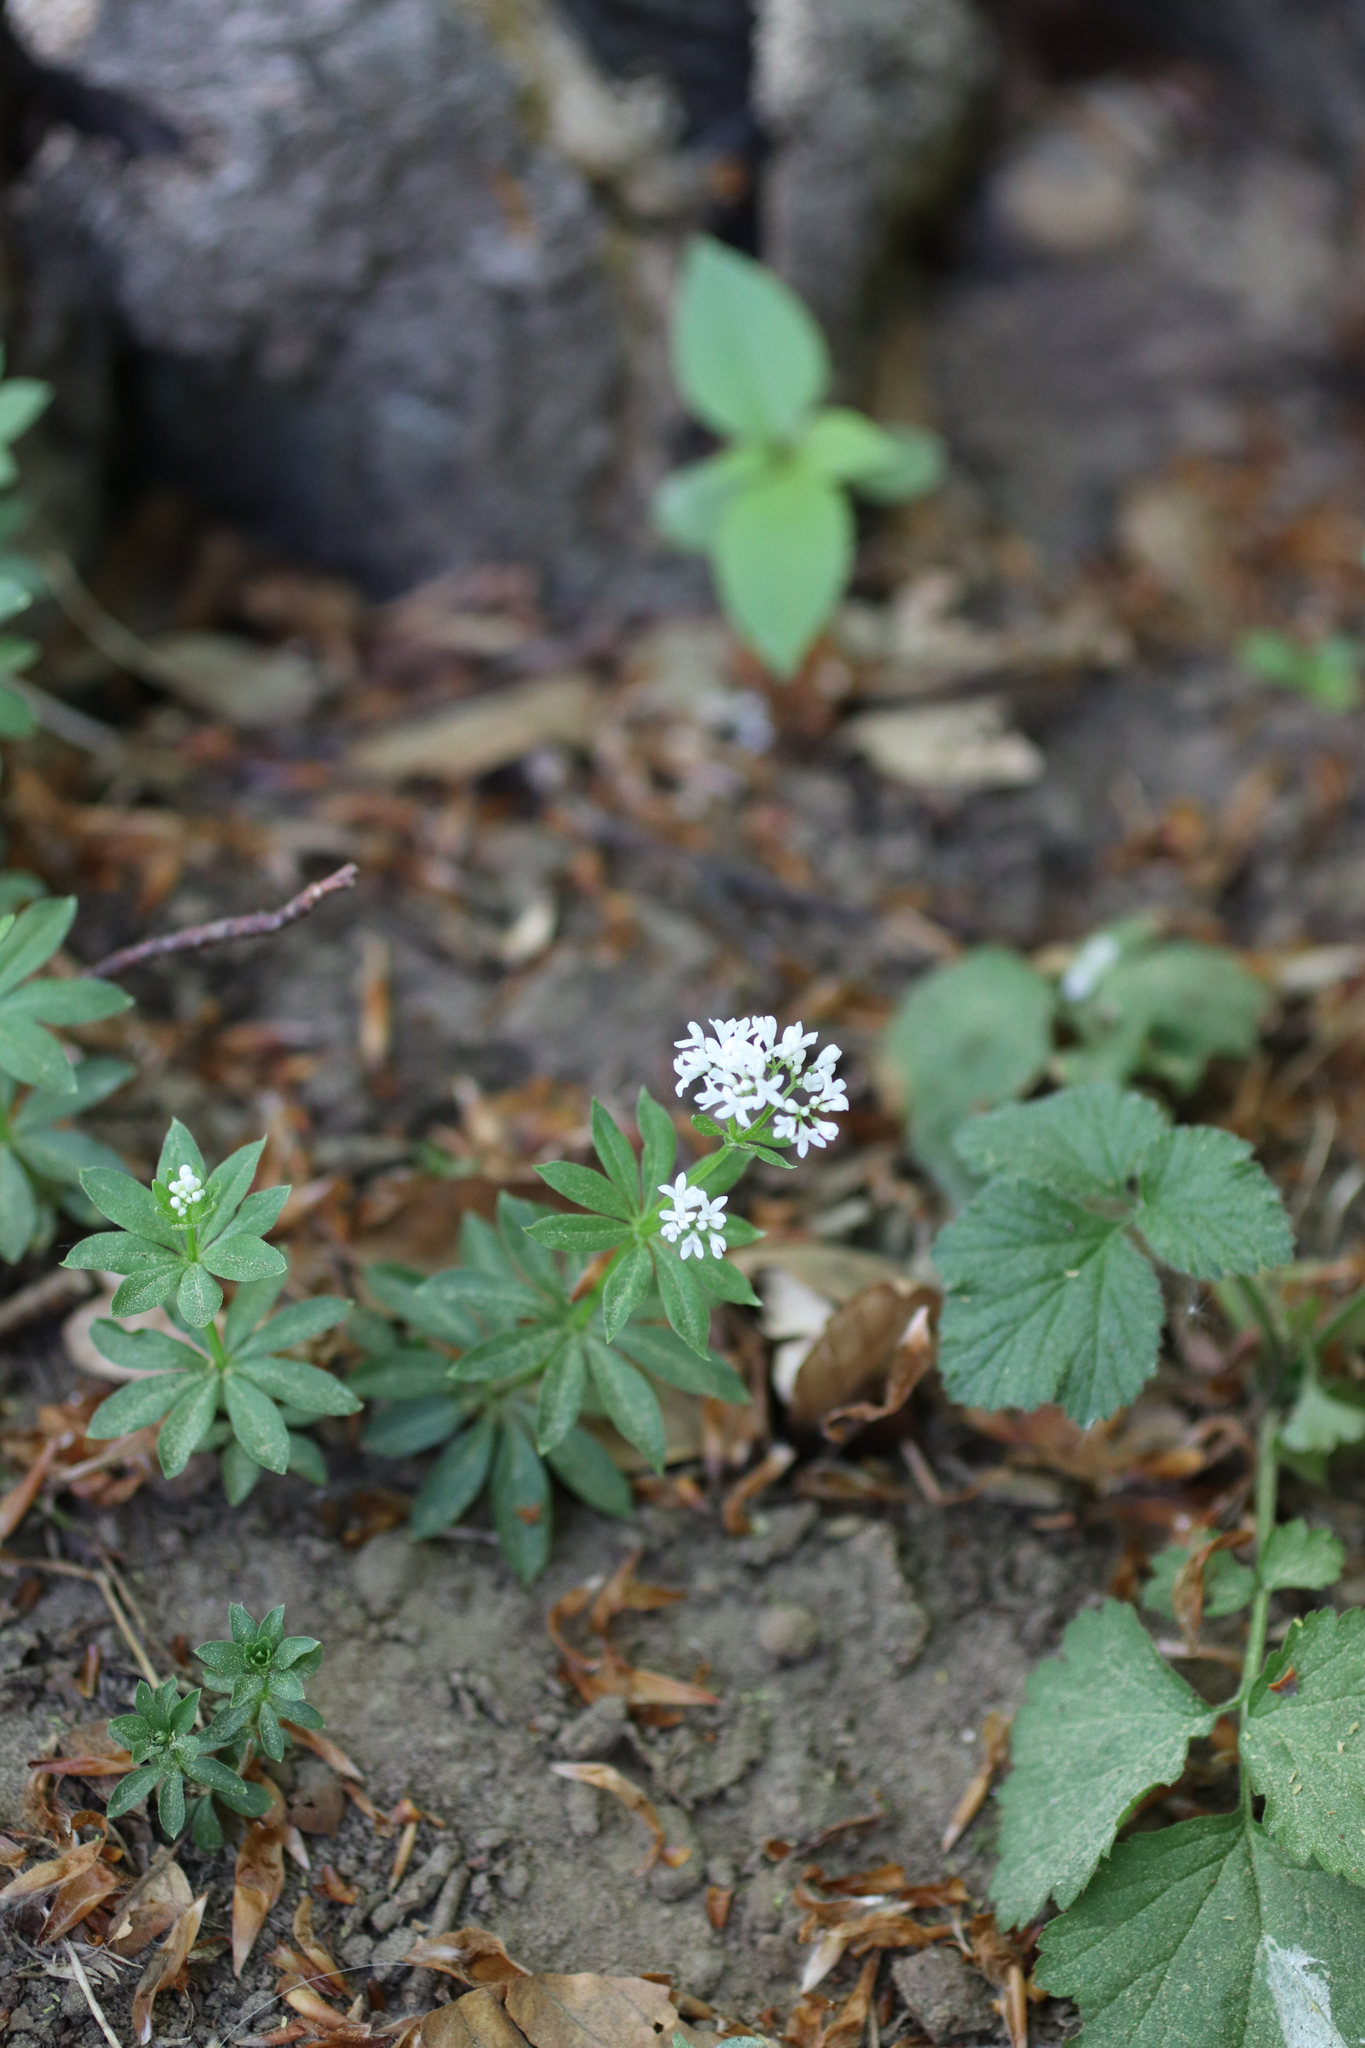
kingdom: Plantae
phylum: Tracheophyta
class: Magnoliopsida
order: Gentianales
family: Rubiaceae
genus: Galium
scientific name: Galium odoratum
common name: Sweet woodruff
